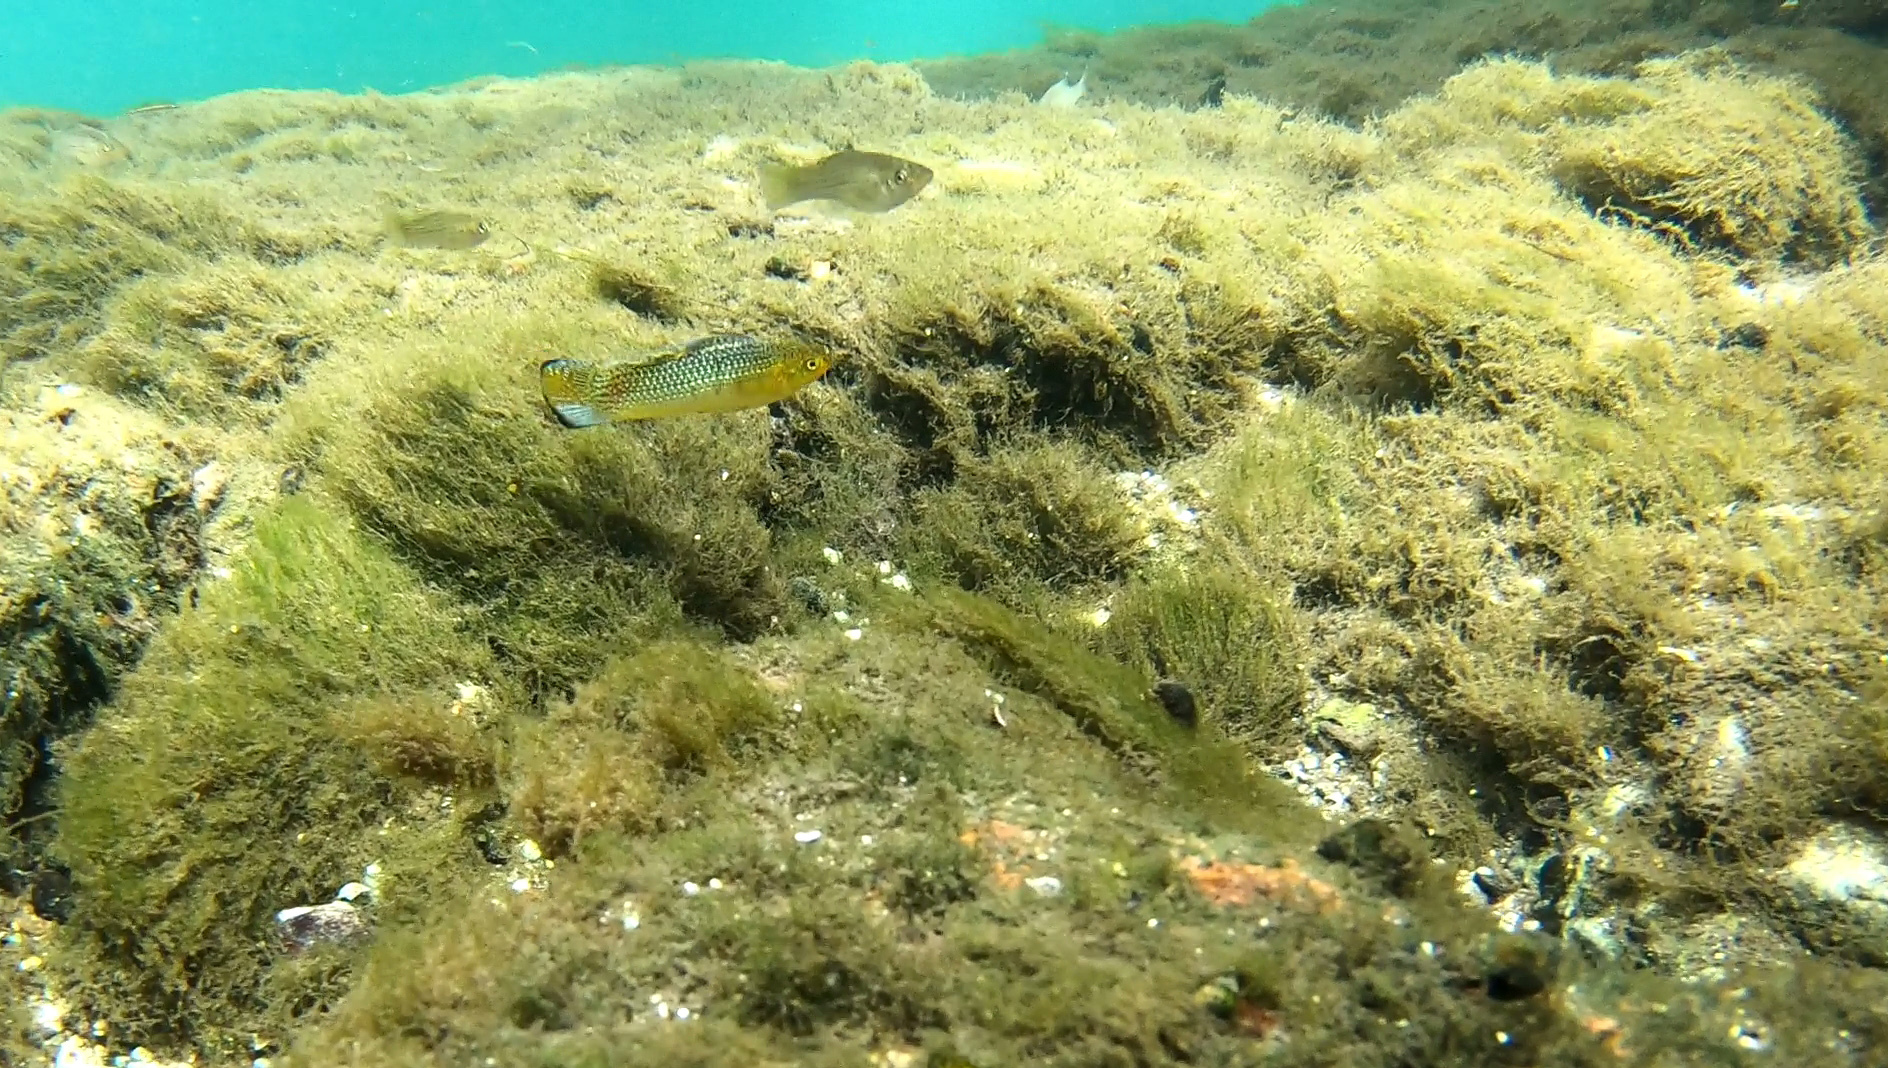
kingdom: Animalia
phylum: Chordata
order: Cyprinodontiformes
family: Poeciliidae
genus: Poecilia
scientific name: Poecilia latipinna
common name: Sailfin molly
